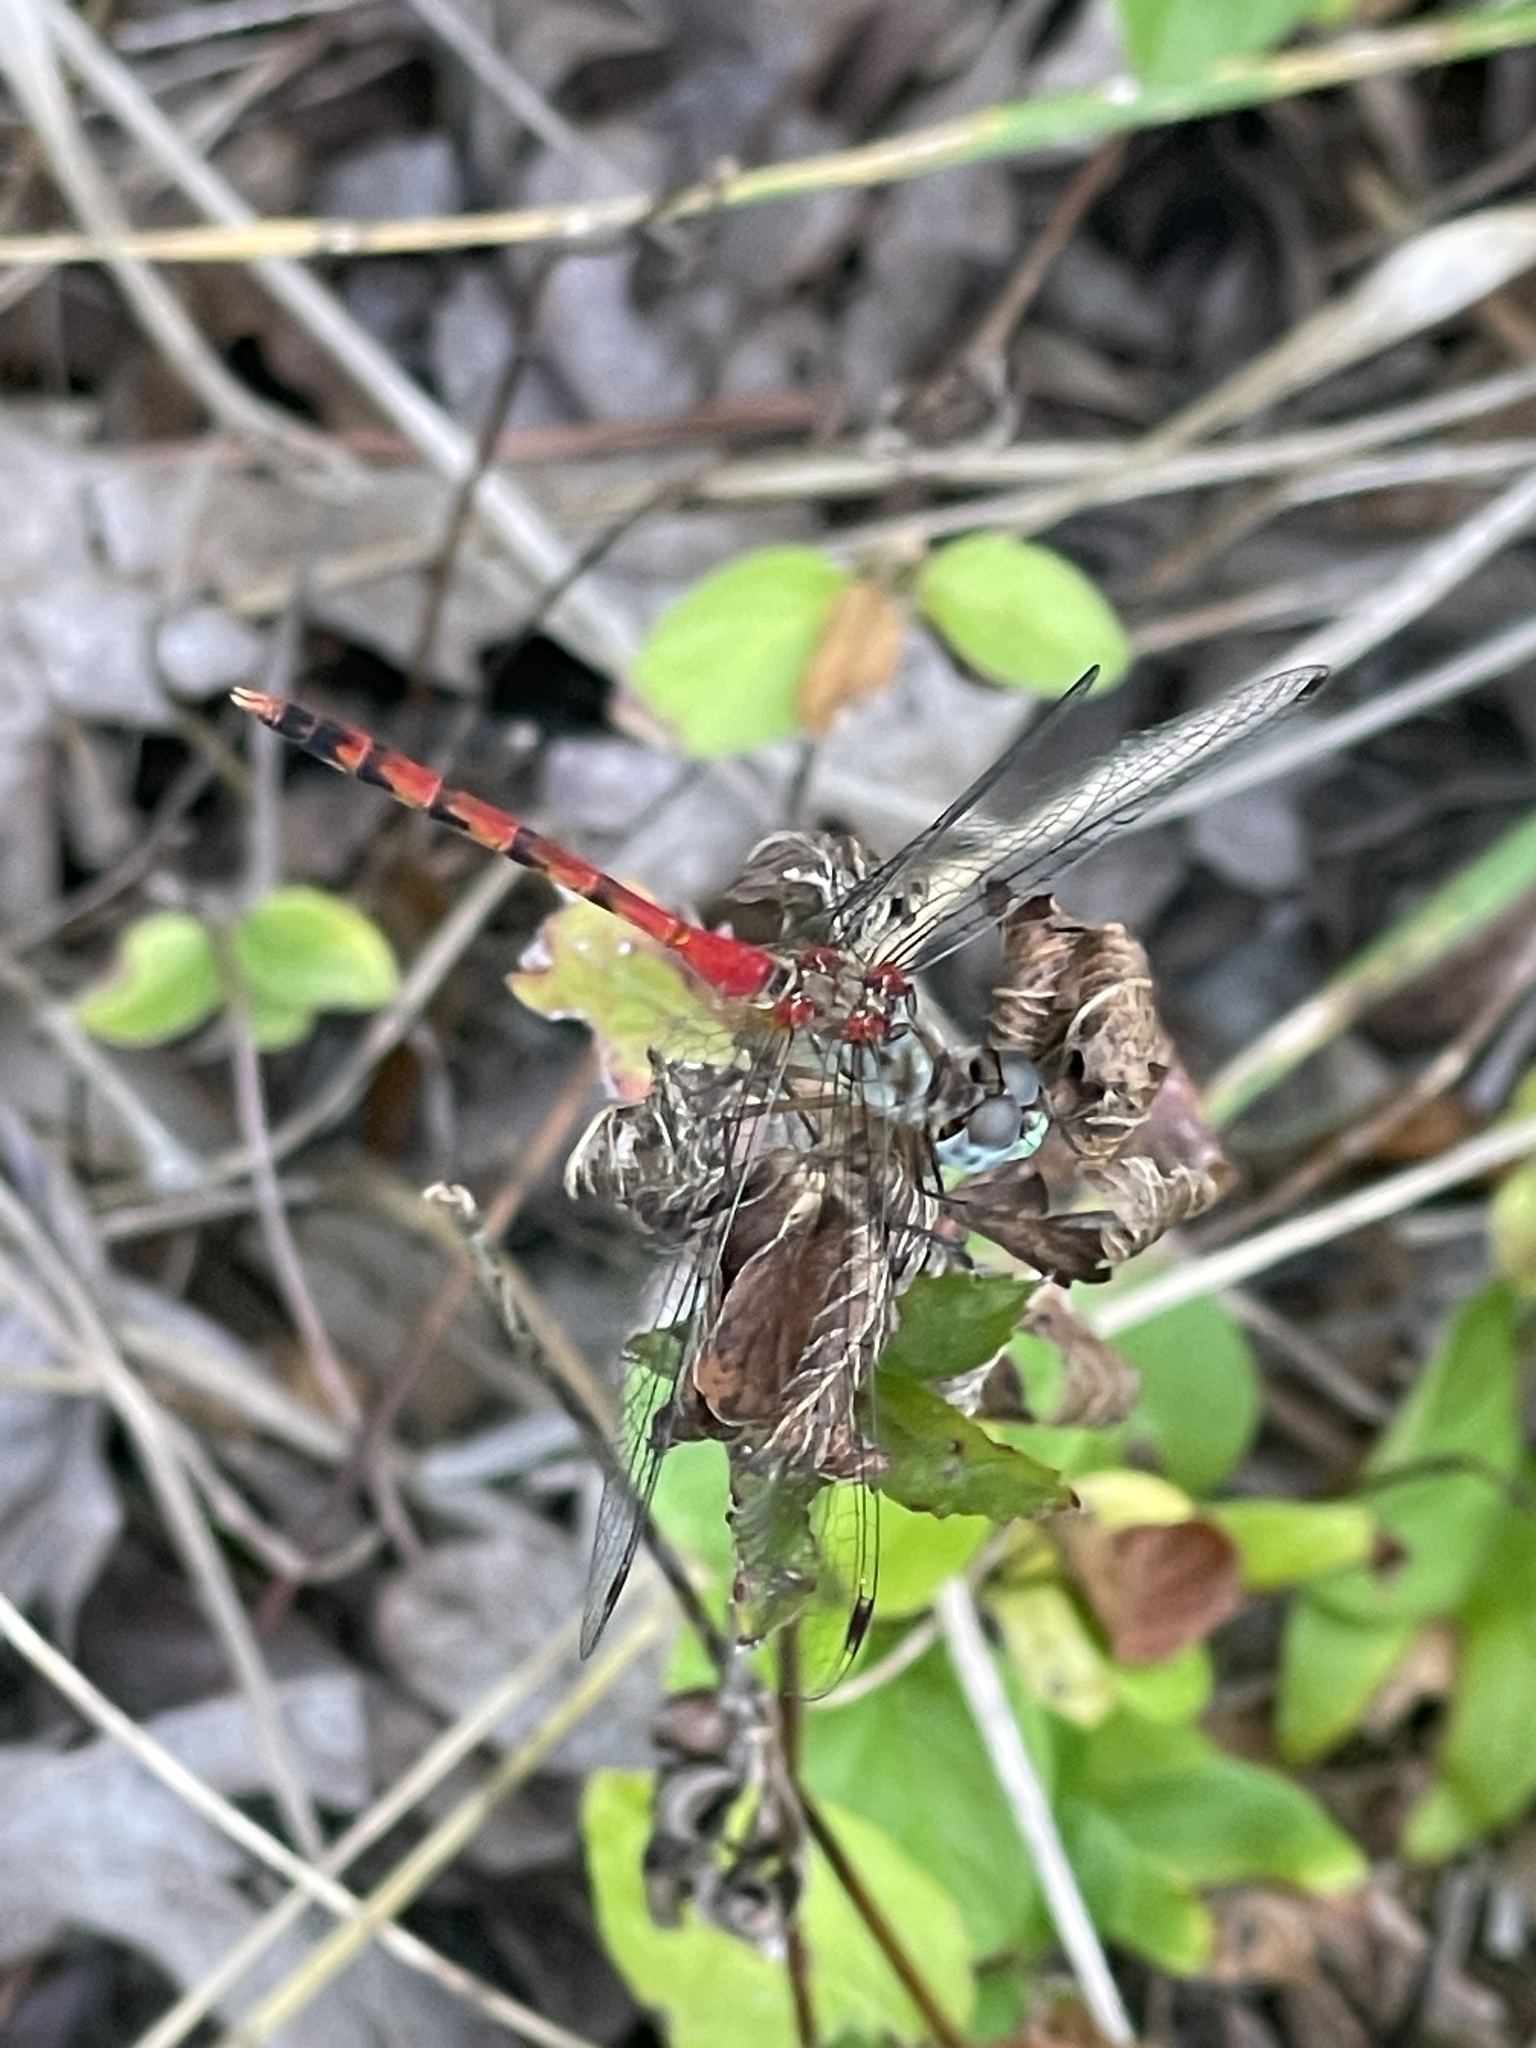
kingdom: Animalia
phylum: Arthropoda
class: Insecta
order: Odonata
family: Libellulidae
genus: Sympetrum
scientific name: Sympetrum ambiguum
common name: Blue-faced meadowhawk
